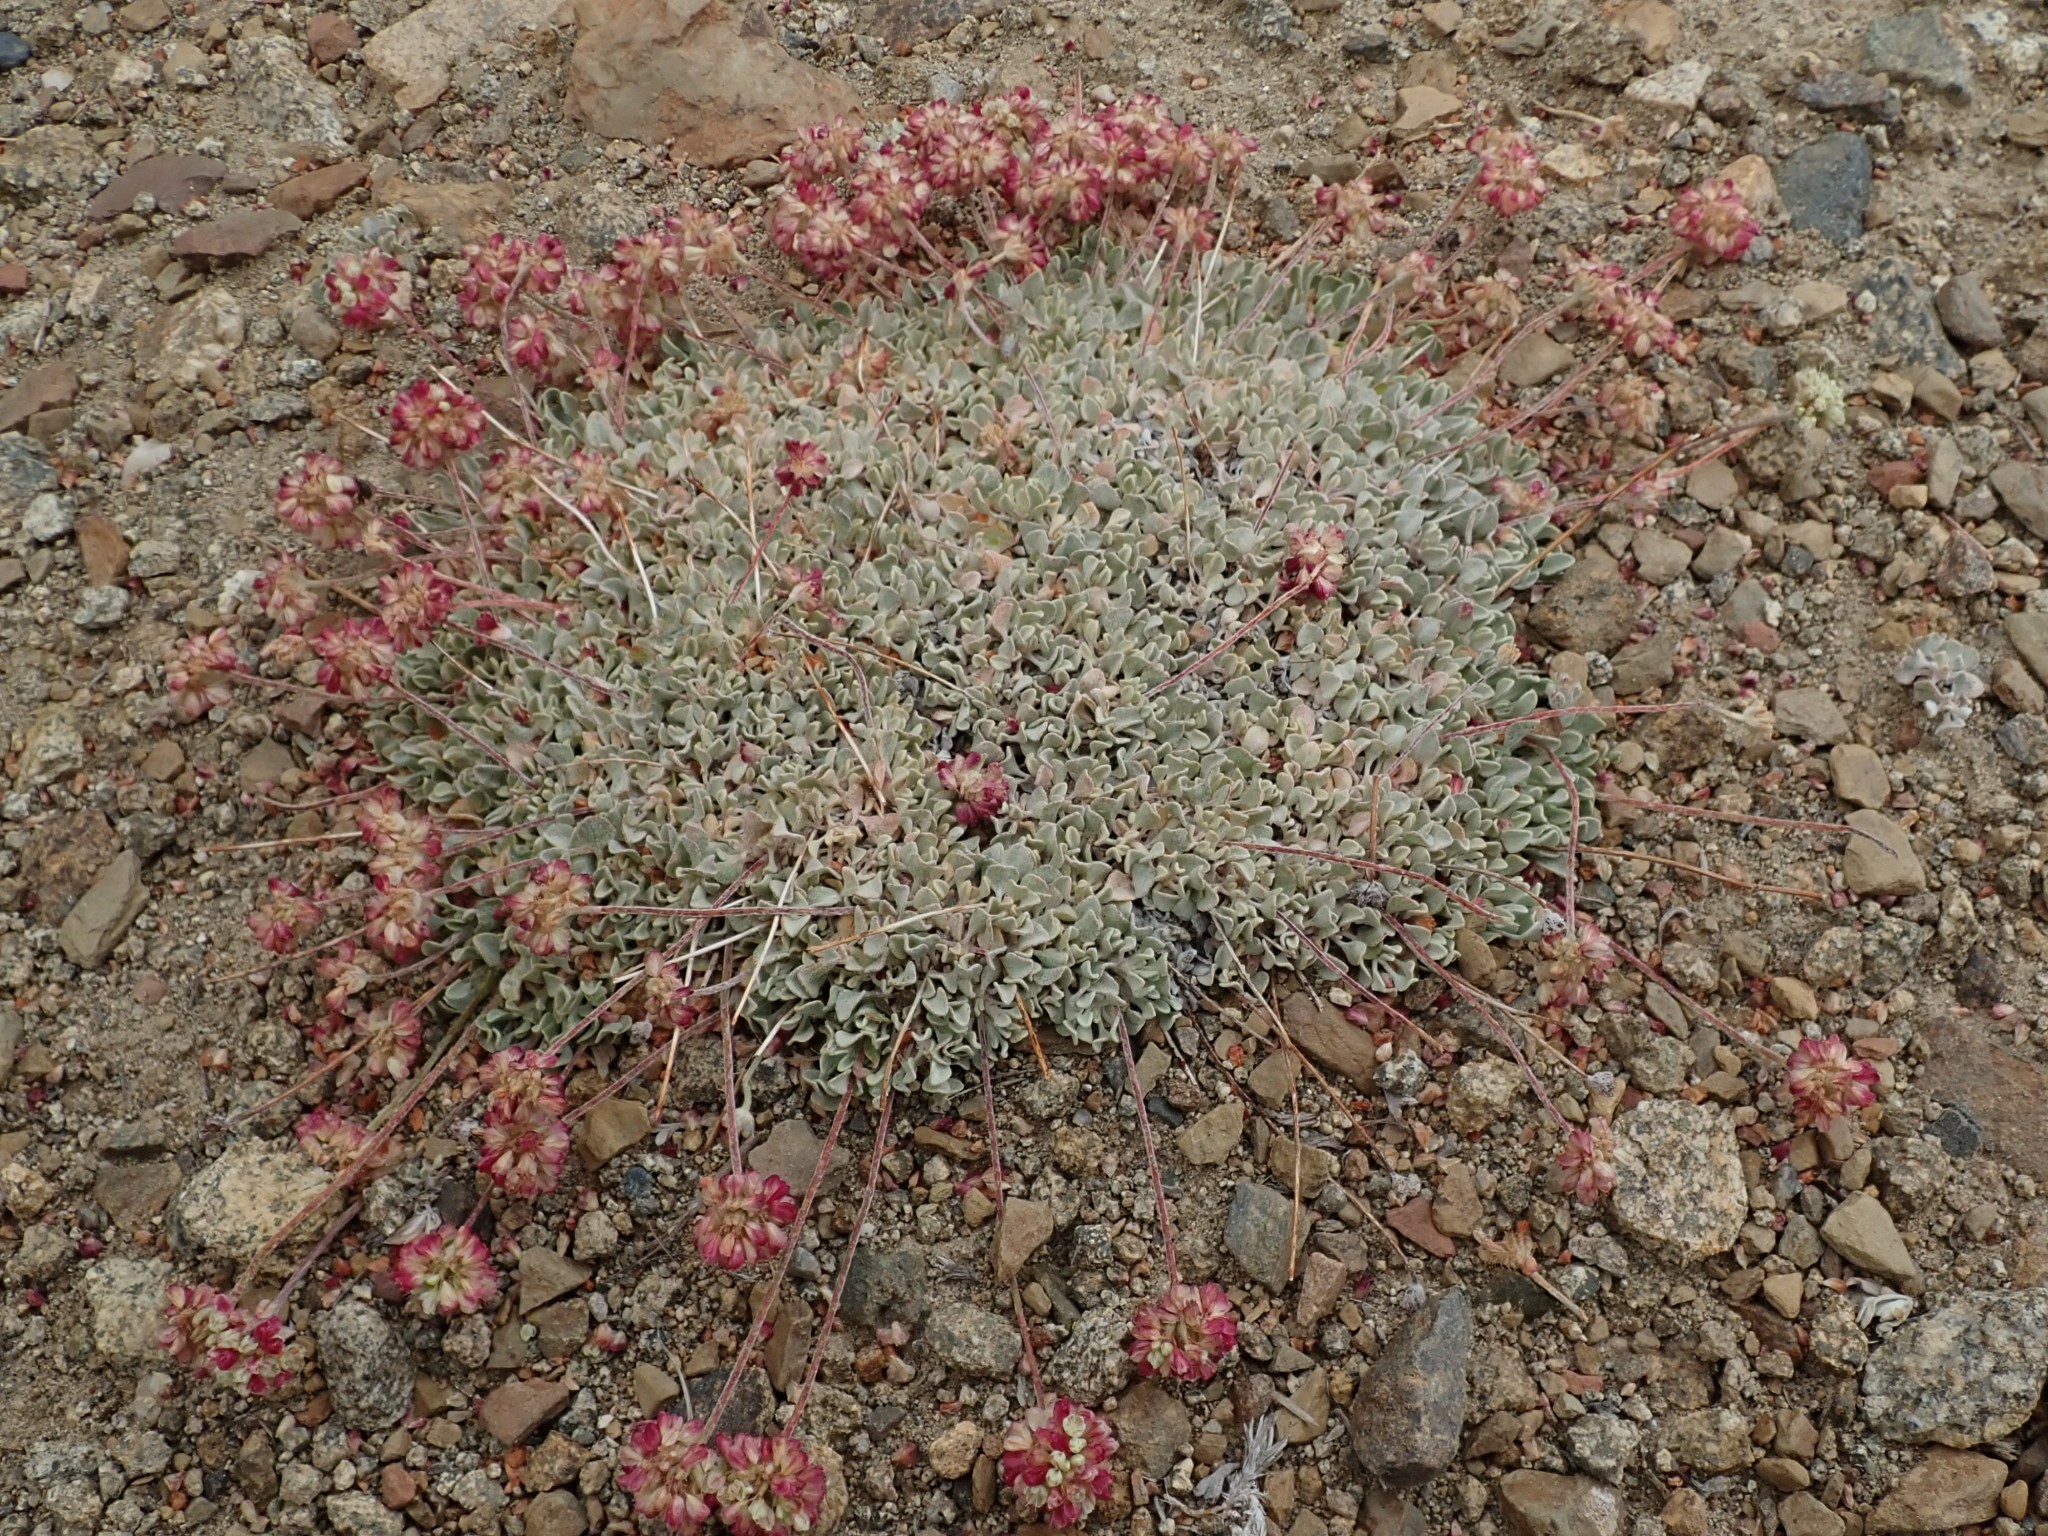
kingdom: Plantae
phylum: Tracheophyta
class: Magnoliopsida
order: Caryophyllales
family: Polygonaceae
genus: Eriogonum
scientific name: Eriogonum ovalifolium
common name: Cushion buckwheat
